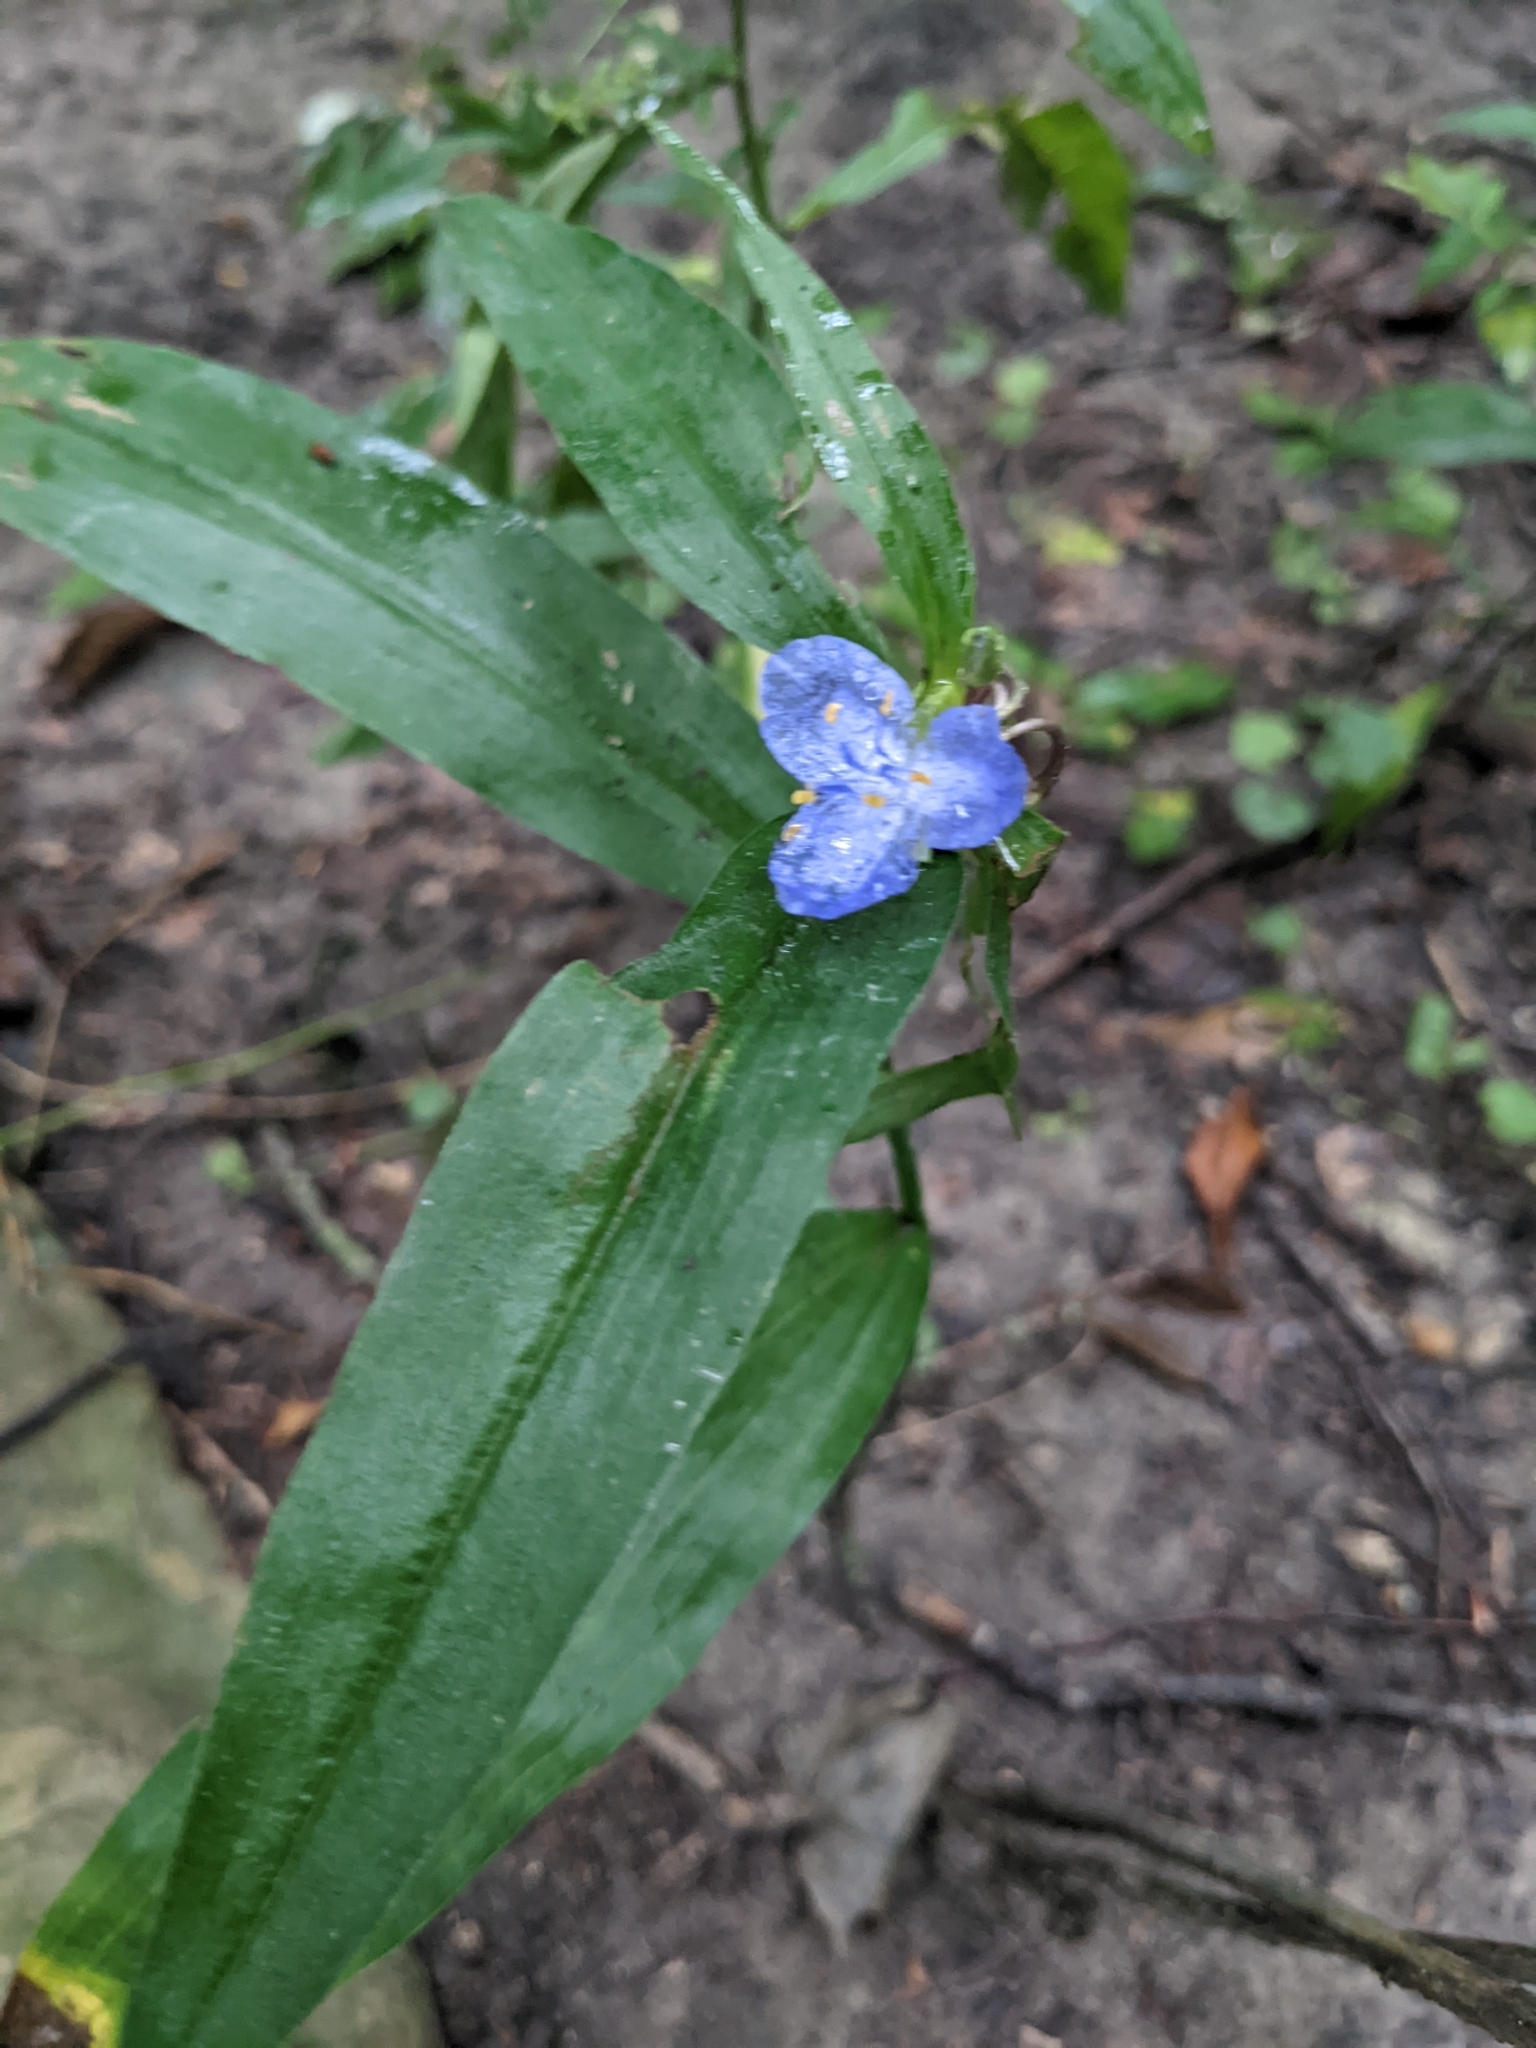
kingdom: Plantae
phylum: Tracheophyta
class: Liliopsida
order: Commelinales
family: Commelinaceae
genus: Tradescantia
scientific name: Tradescantia subaspera
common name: Wide-leaf spiderwort
